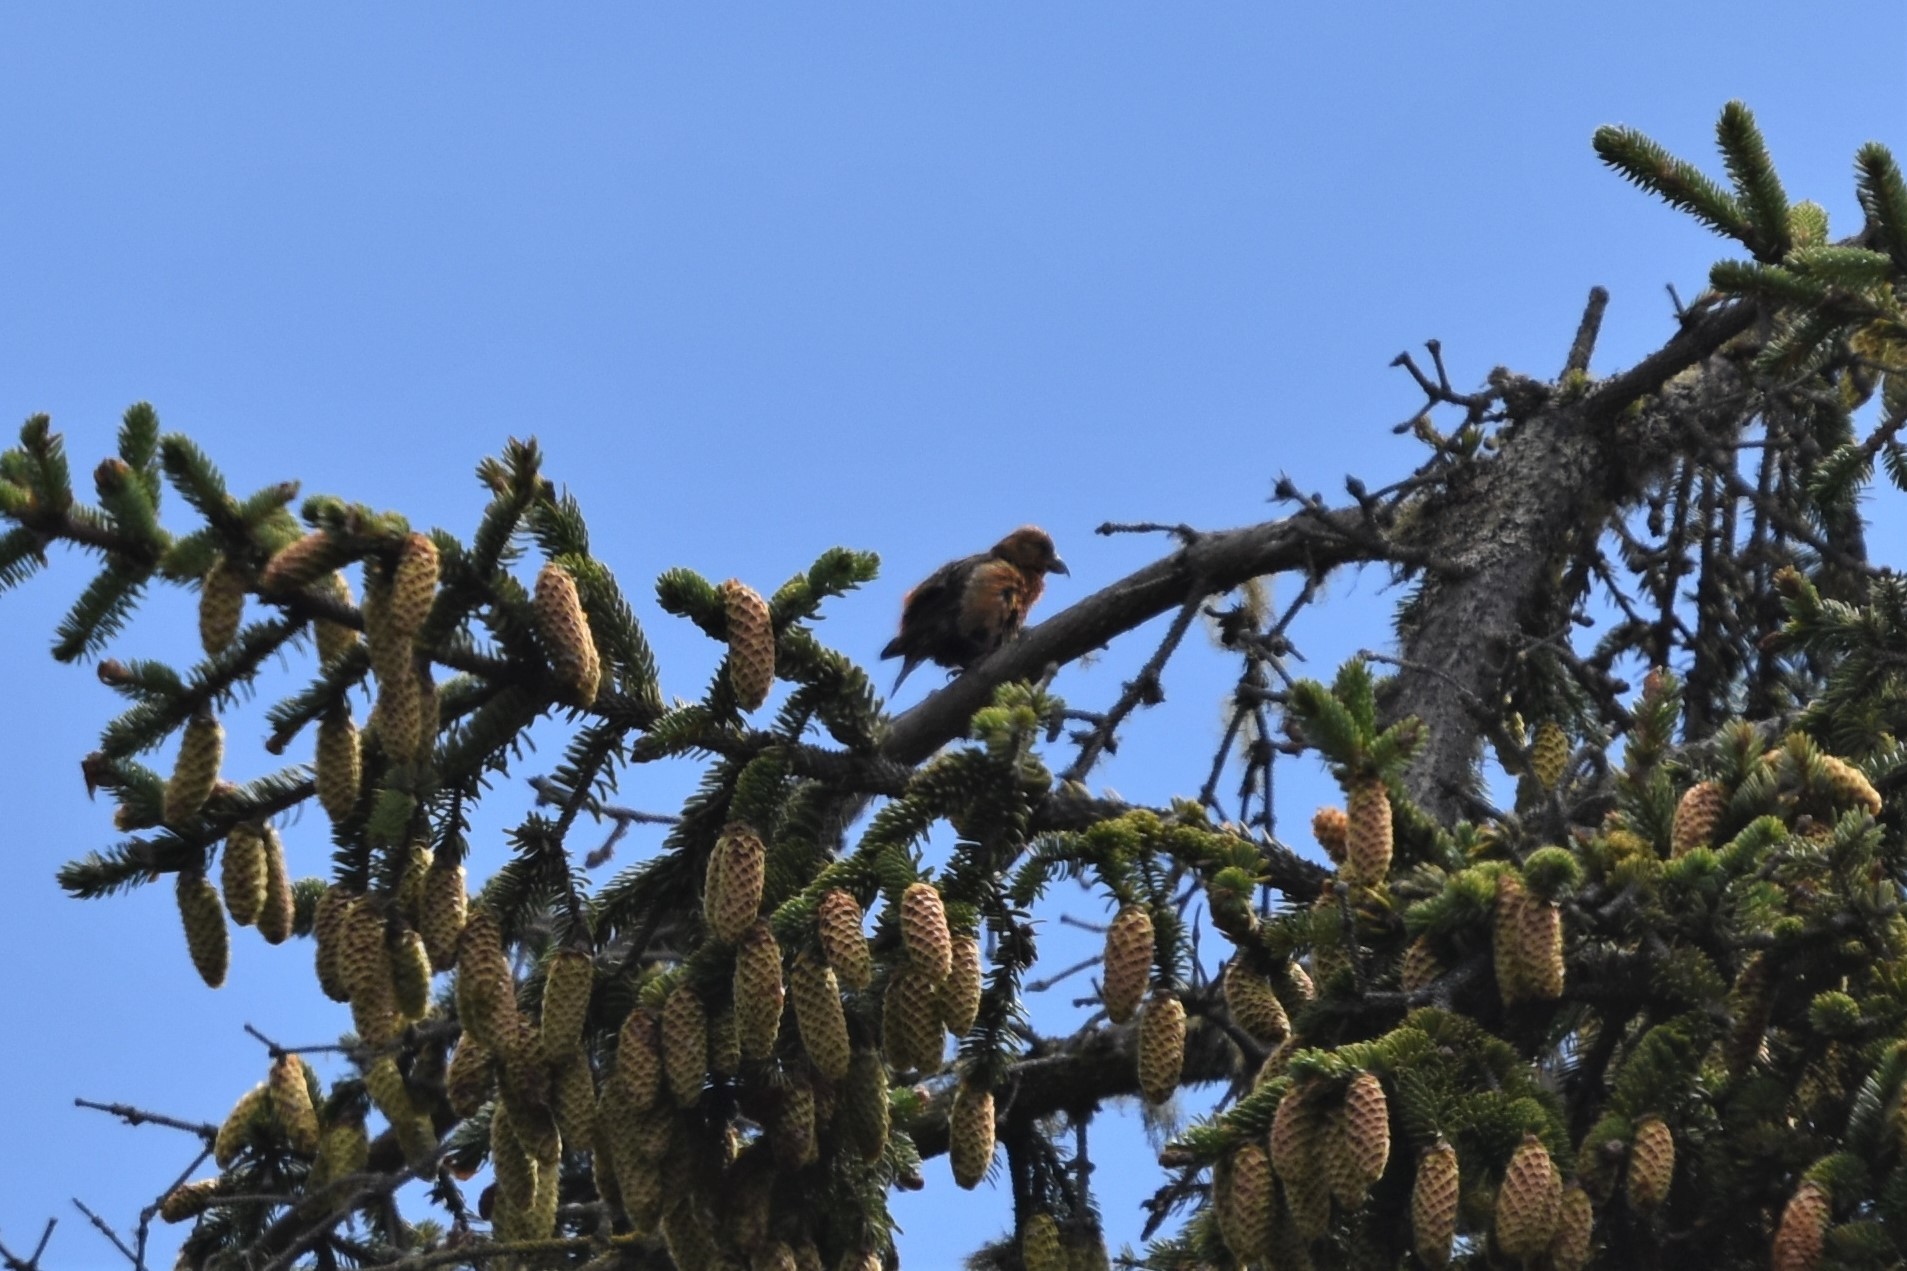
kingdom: Animalia
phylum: Chordata
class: Aves
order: Passeriformes
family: Fringillidae
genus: Loxia
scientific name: Loxia curvirostra
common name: Red crossbill
